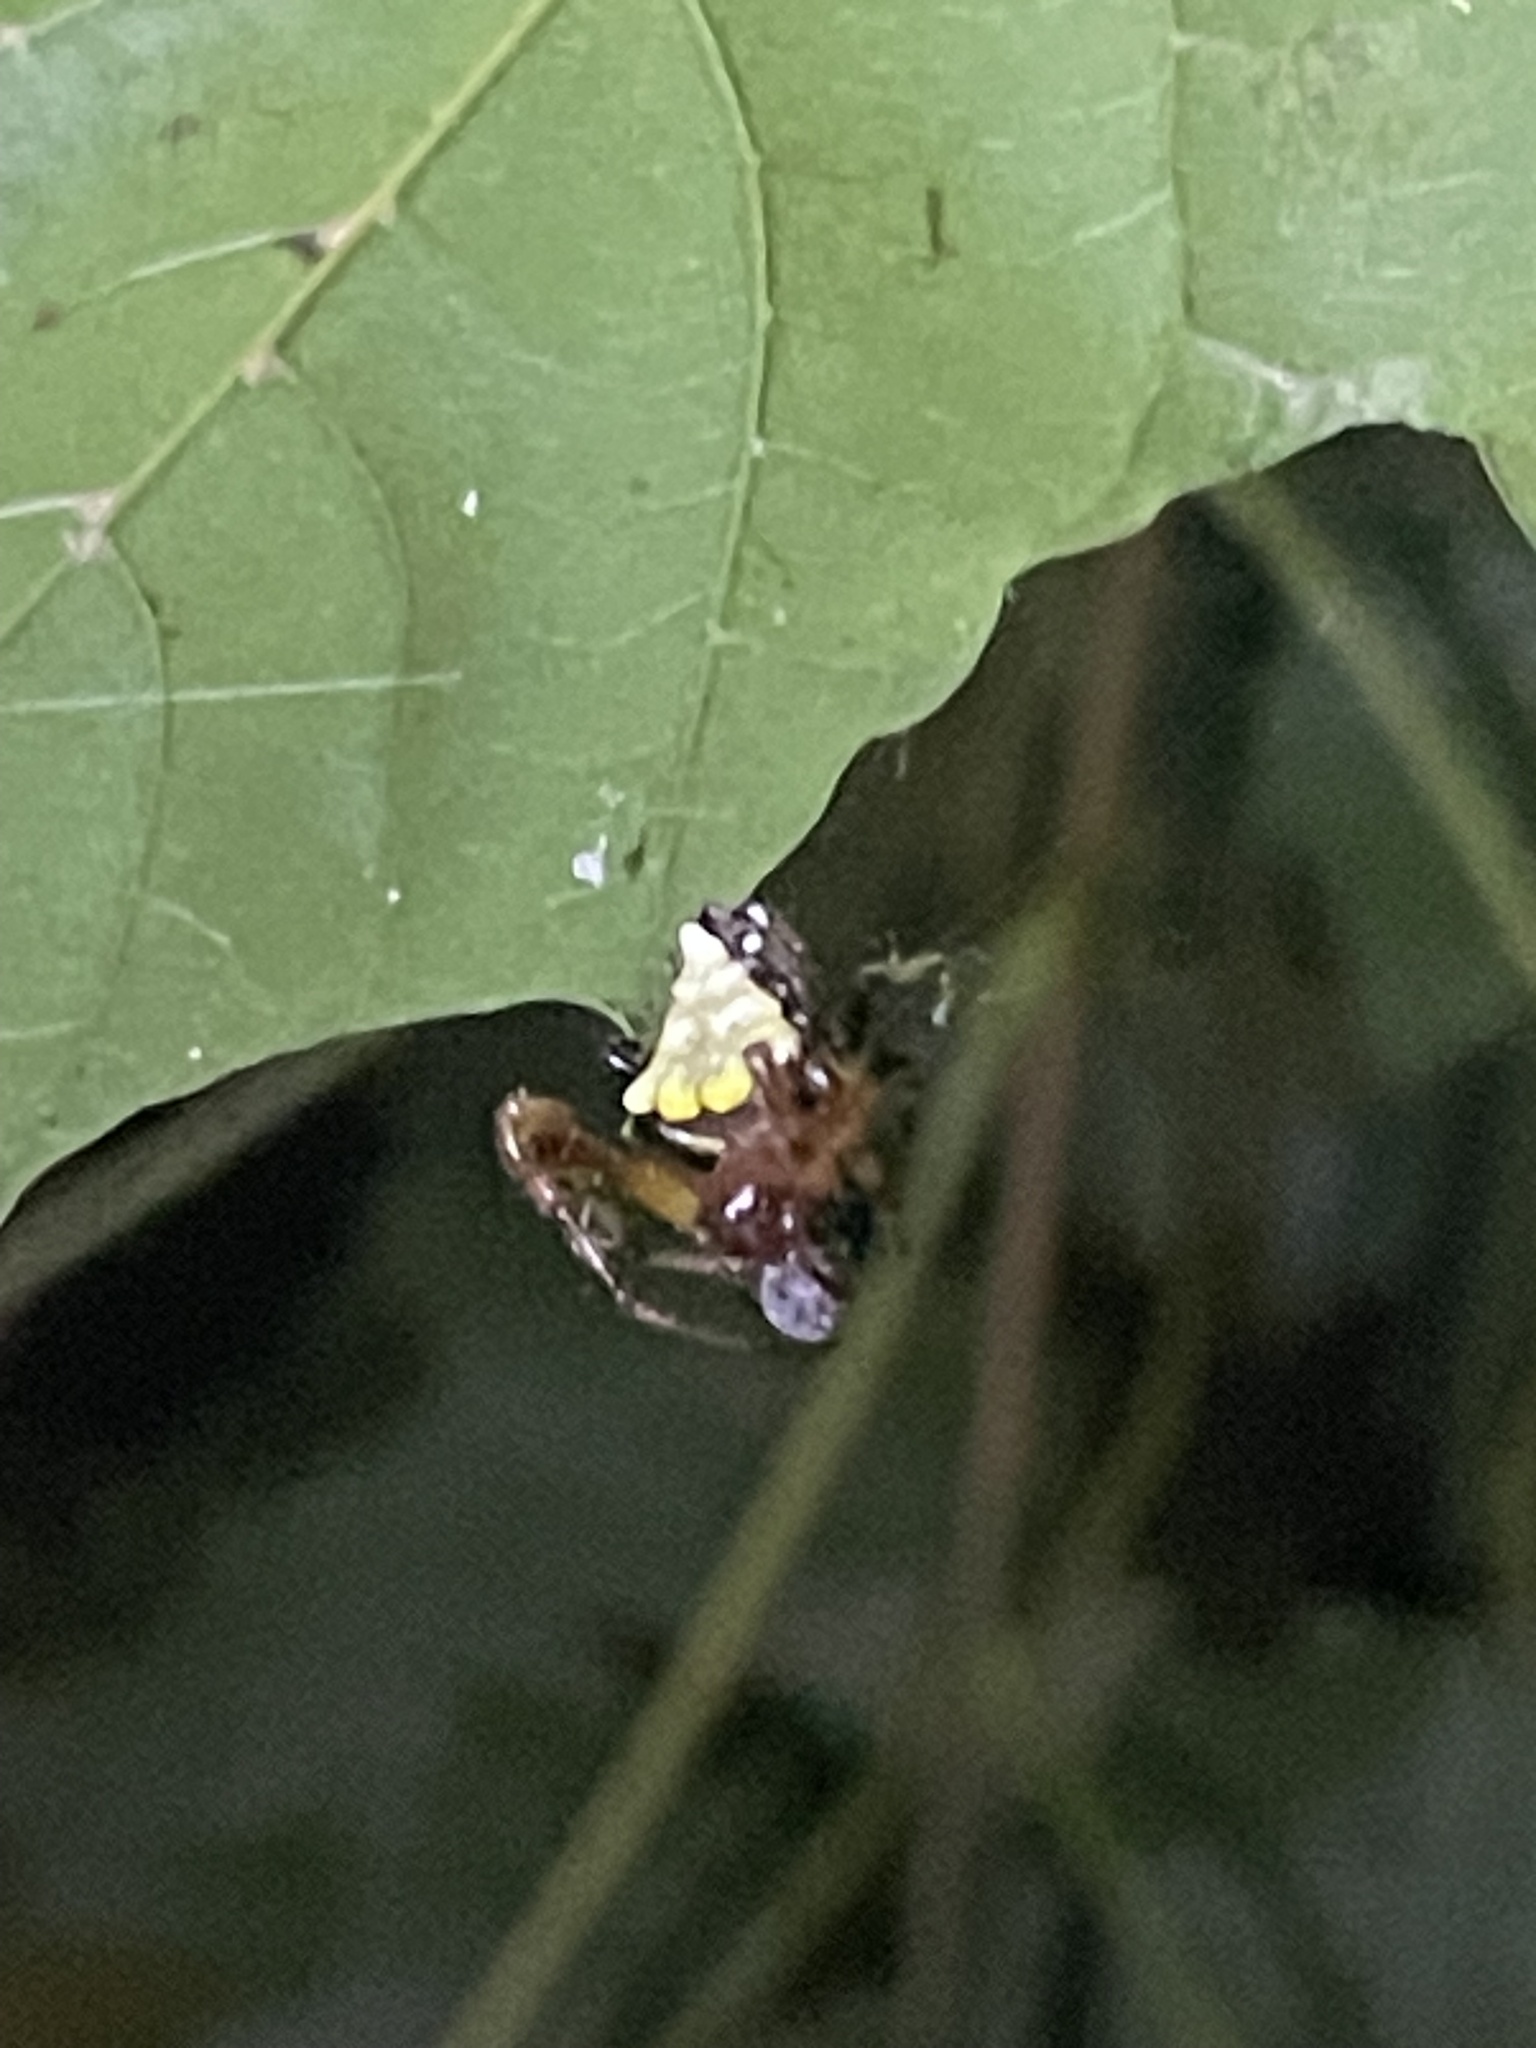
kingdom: Animalia
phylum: Arthropoda
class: Arachnida
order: Araneae
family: Araneidae
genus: Verrucosa
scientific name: Verrucosa arenata
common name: Orb weavers
